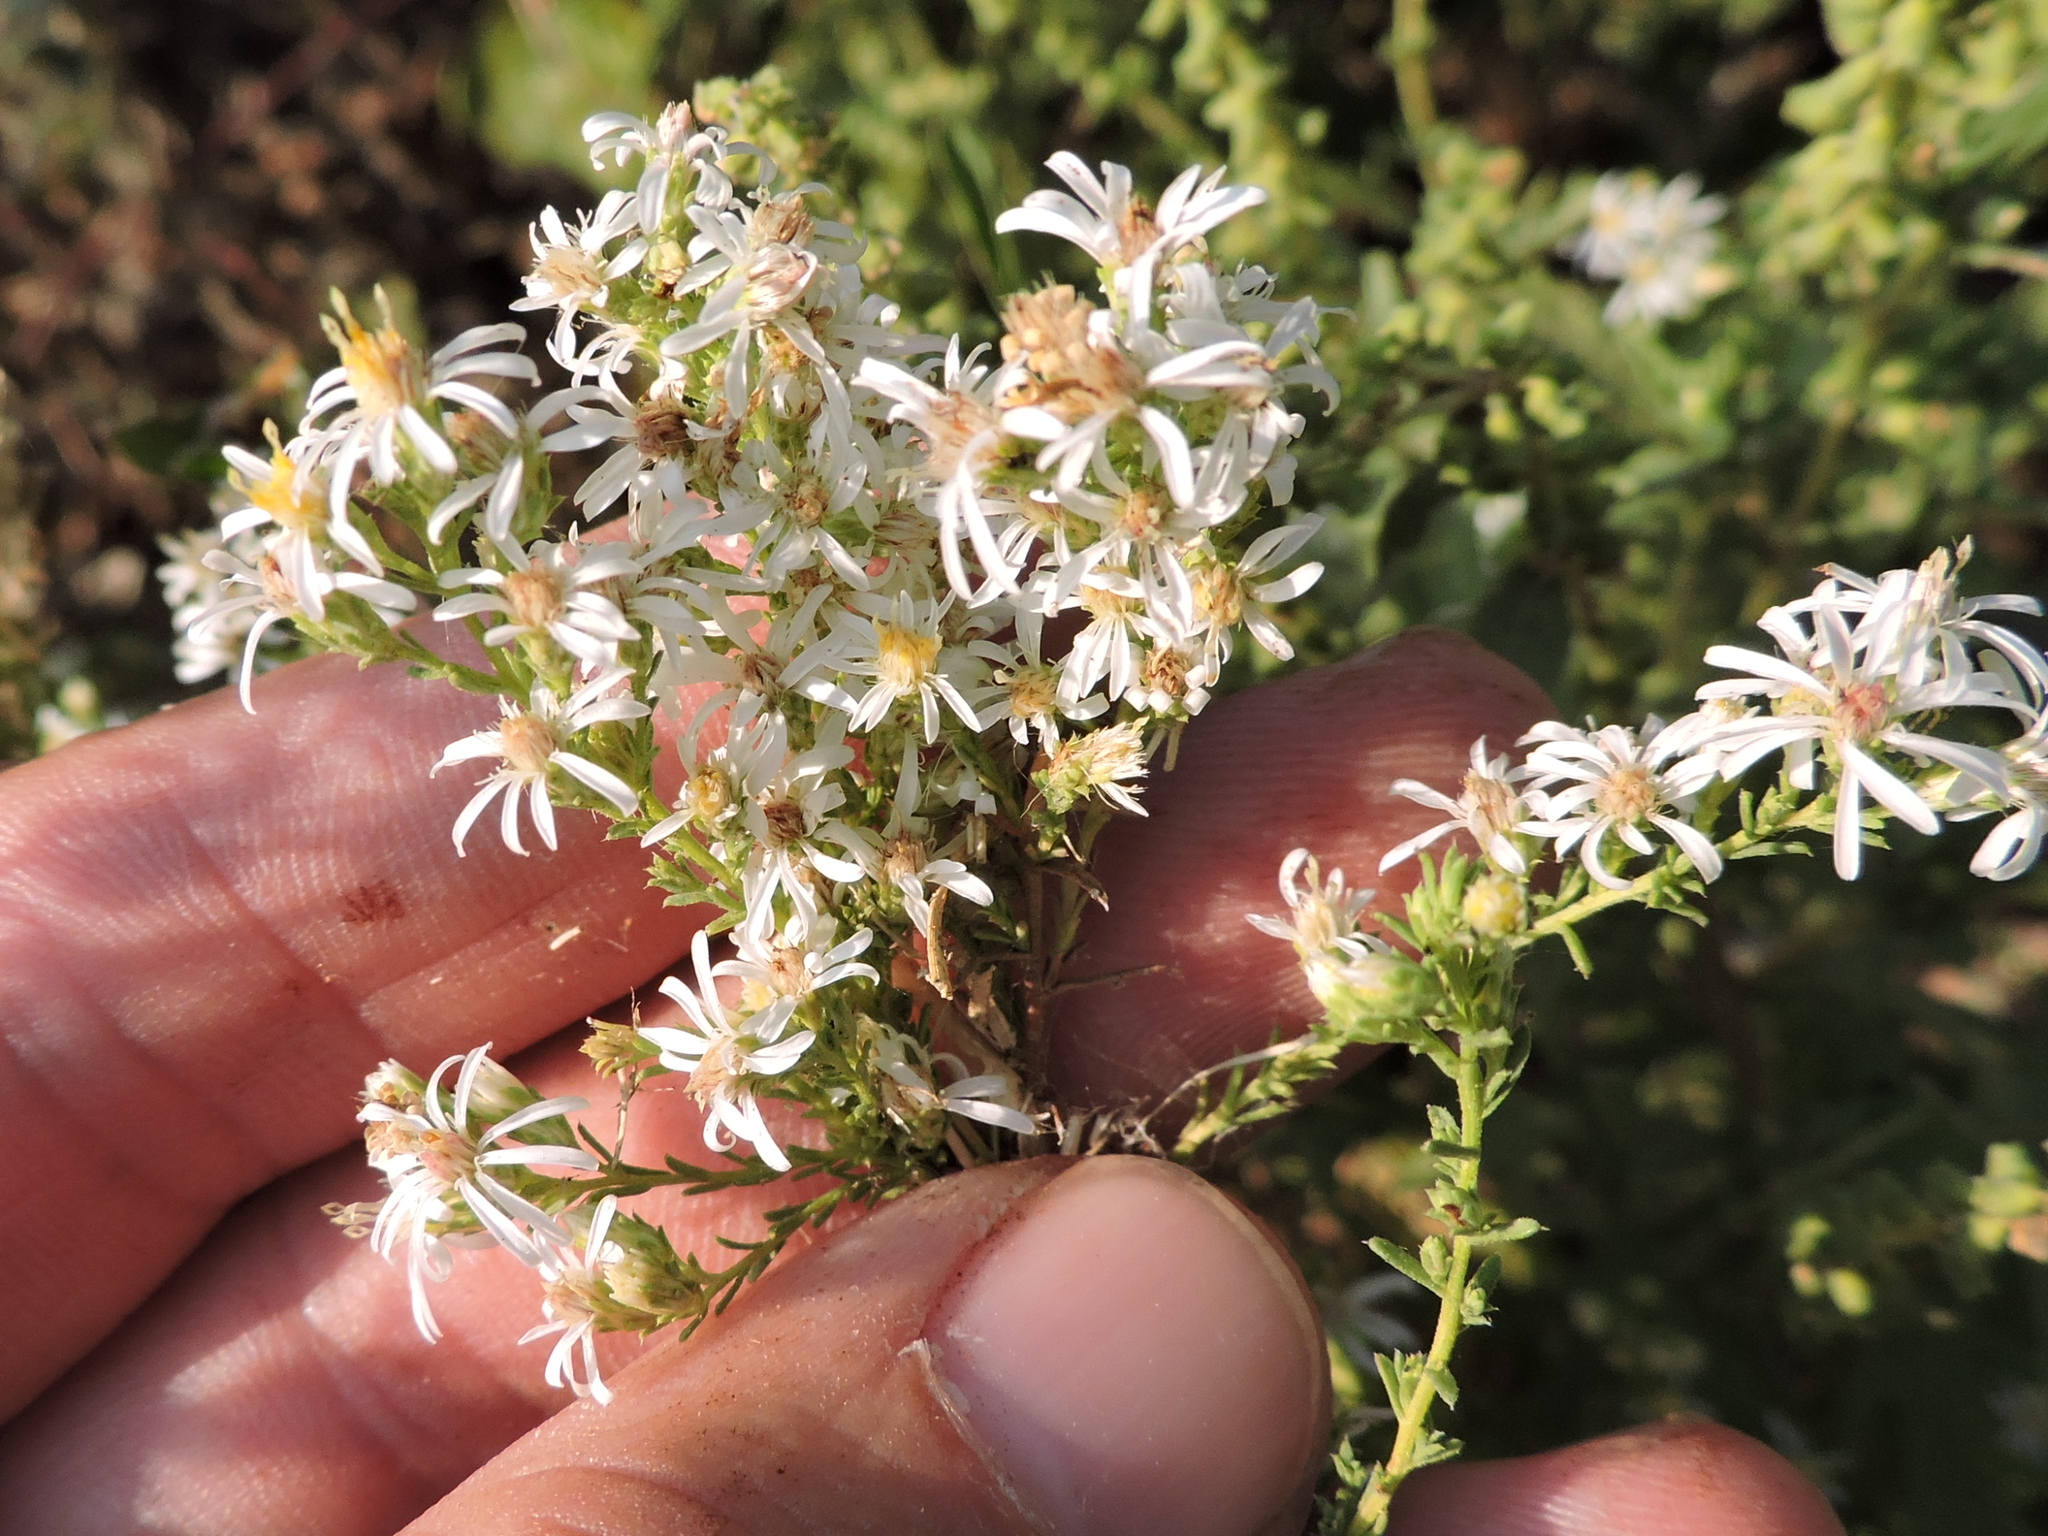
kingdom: Plantae
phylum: Tracheophyta
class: Magnoliopsida
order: Asterales
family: Asteraceae
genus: Symphyotrichum
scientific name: Symphyotrichum ericoides
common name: Heath aster
